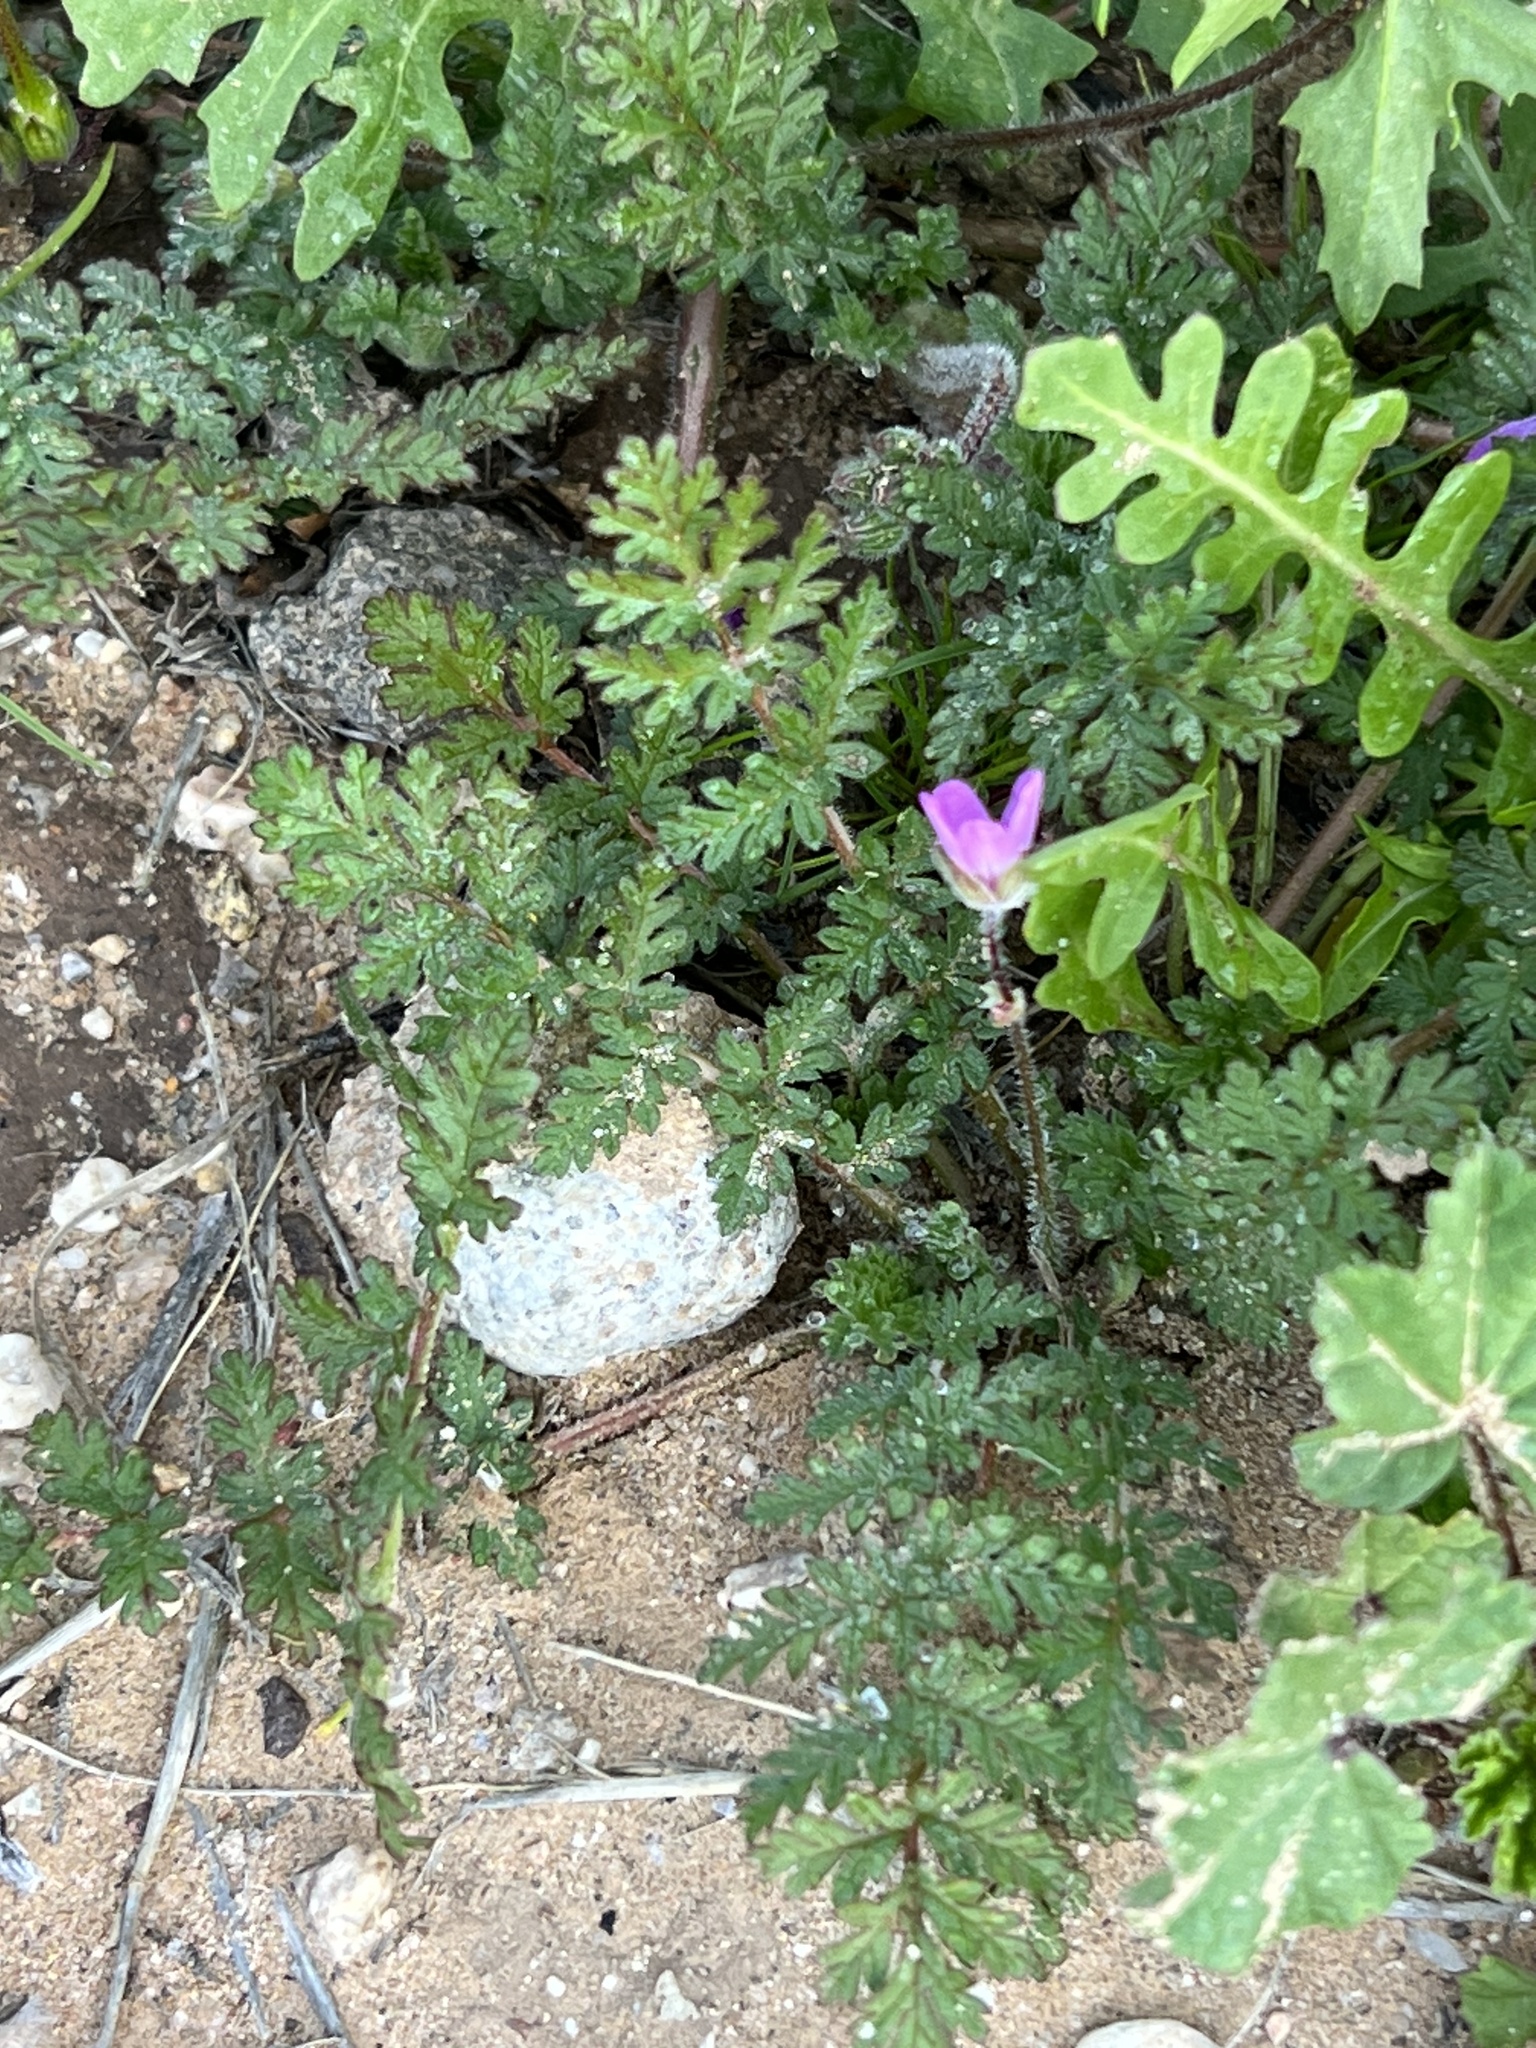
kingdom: Plantae
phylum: Tracheophyta
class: Magnoliopsida
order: Geraniales
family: Geraniaceae
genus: Erodium
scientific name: Erodium cicutarium
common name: Common stork's-bill
